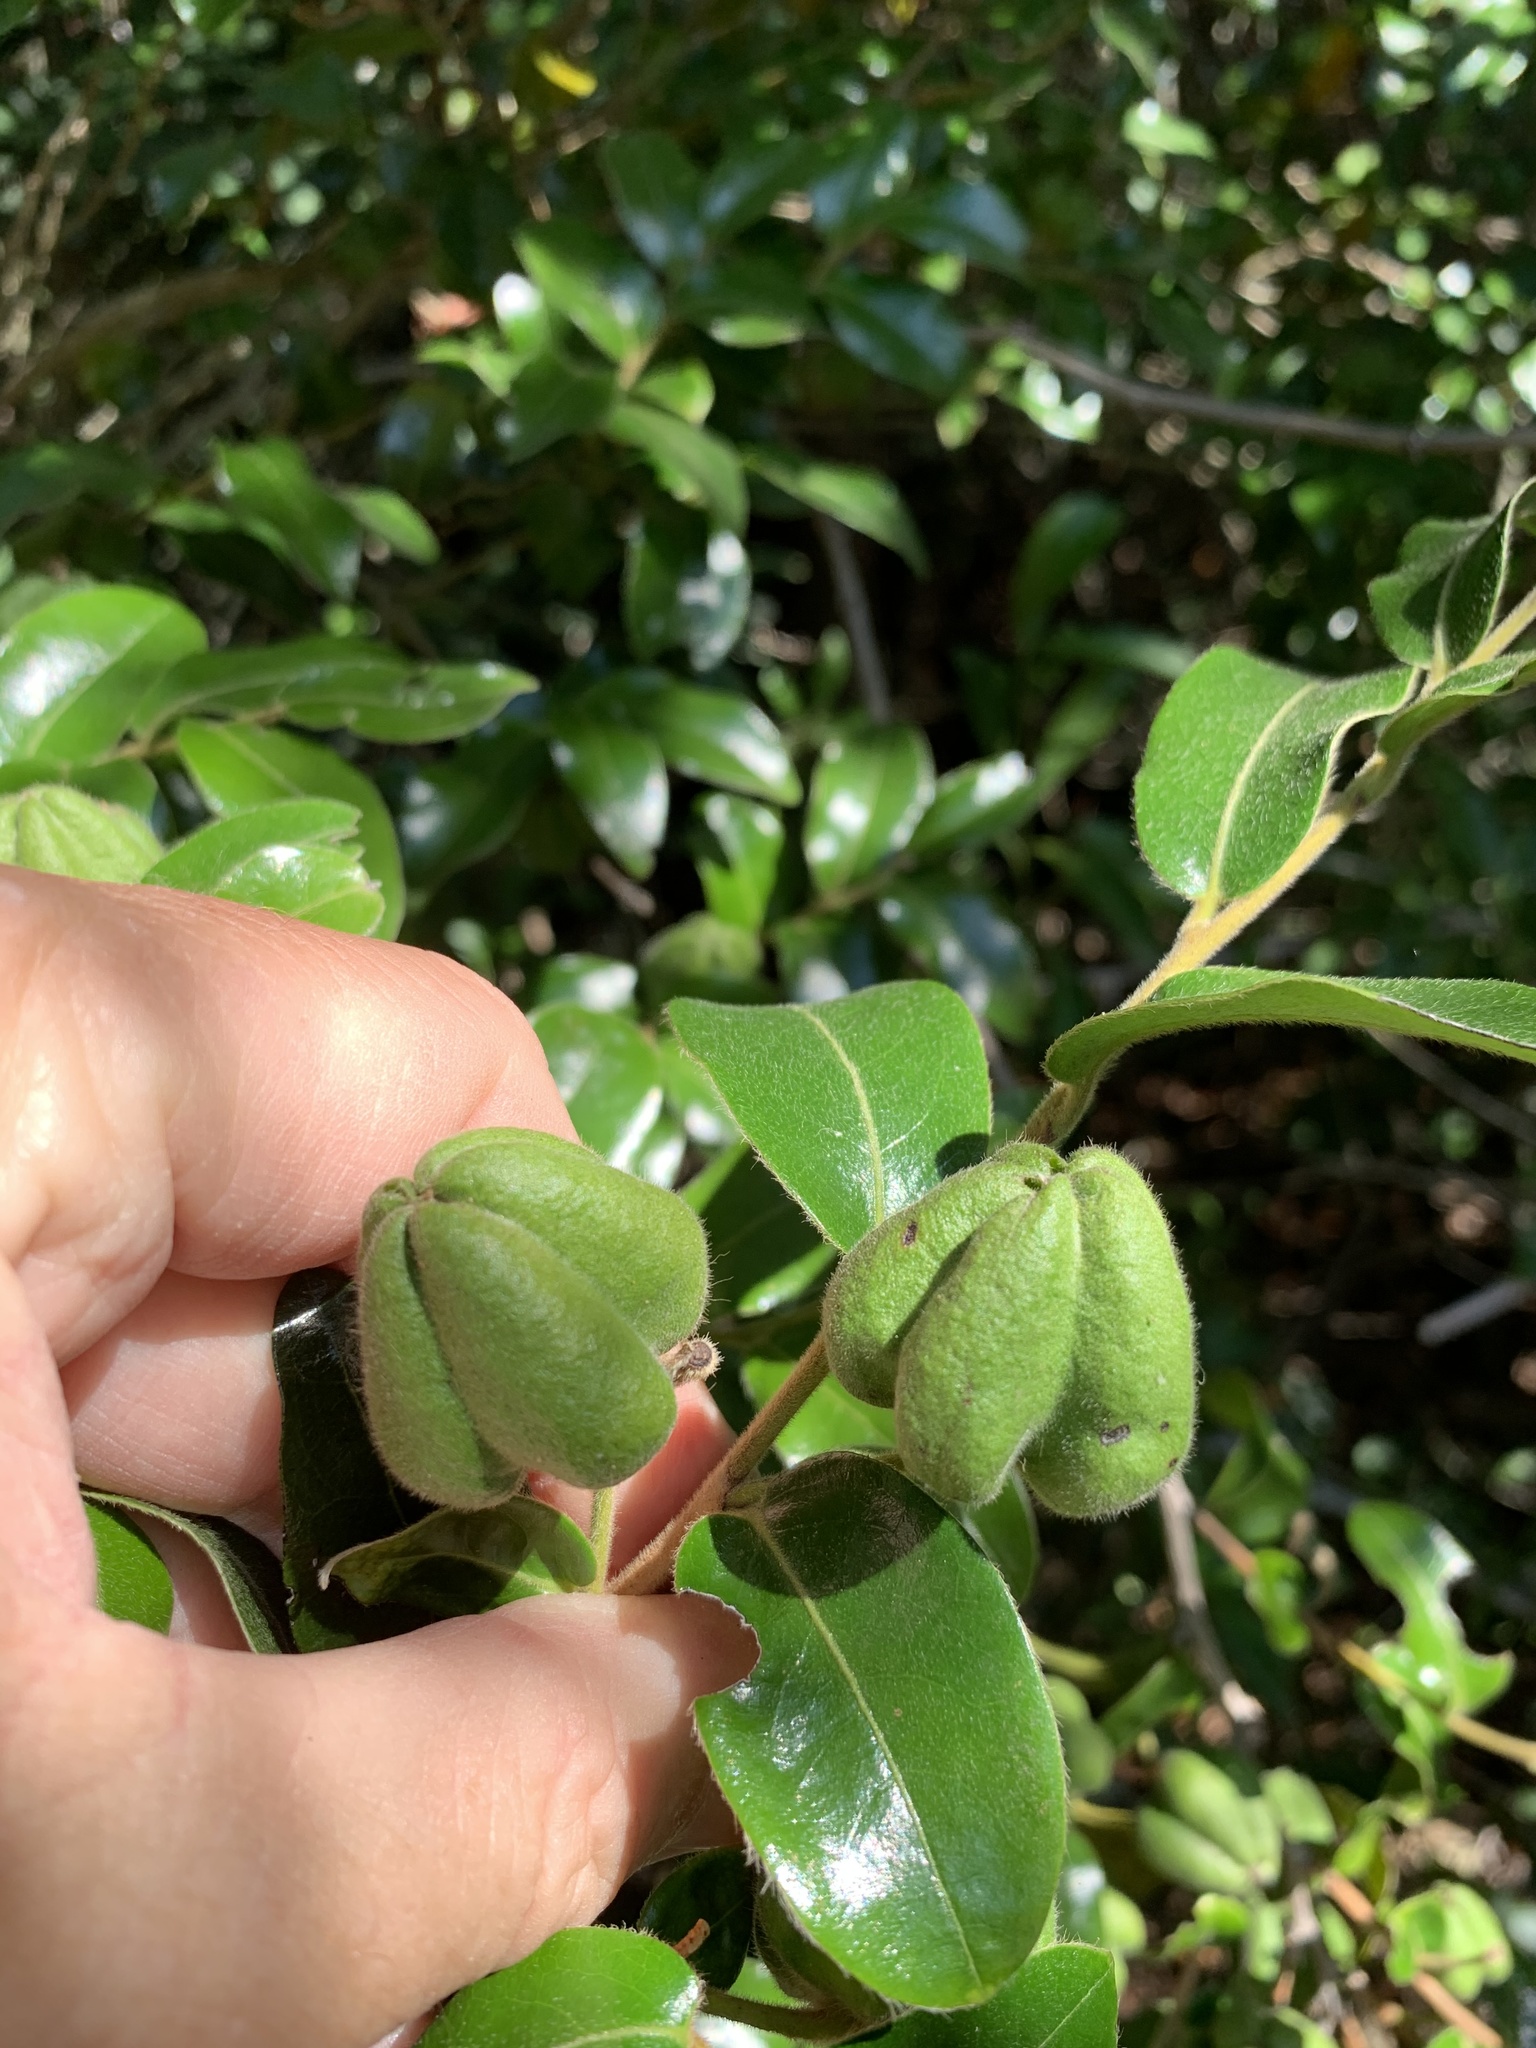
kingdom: Plantae
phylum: Tracheophyta
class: Magnoliopsida
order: Ericales
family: Ebenaceae
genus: Diospyros
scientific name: Diospyros whyteana
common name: Bladder-nut
